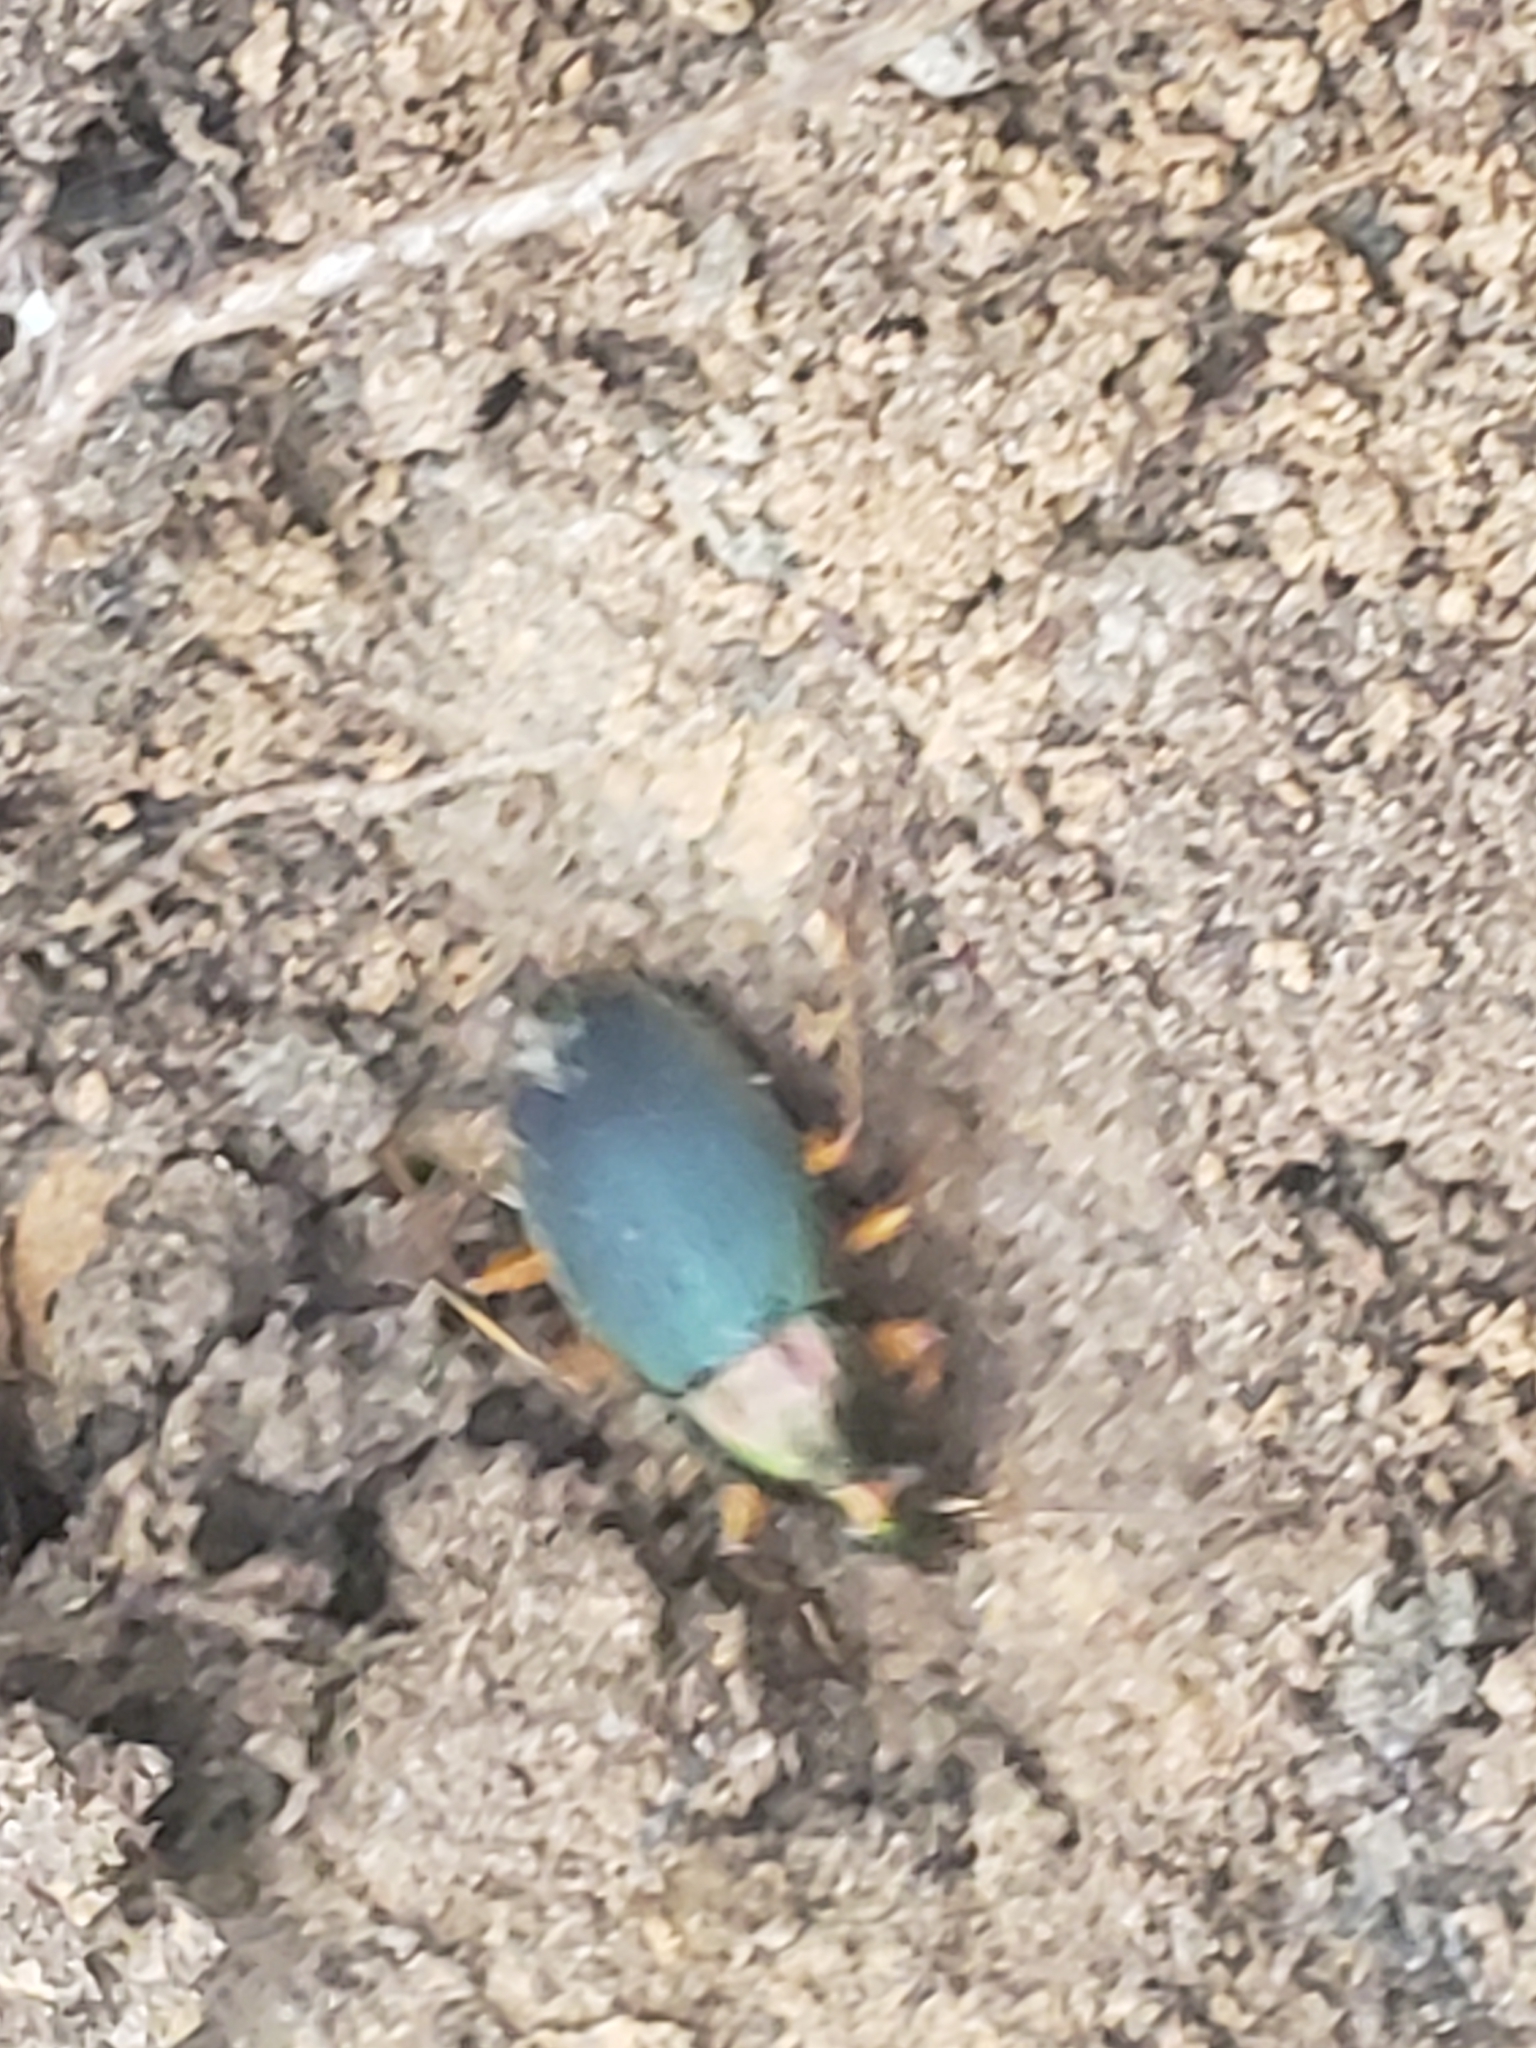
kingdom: Animalia
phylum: Arthropoda
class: Insecta
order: Coleoptera
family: Carabidae
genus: Chlaenius
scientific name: Chlaenius aestivus
